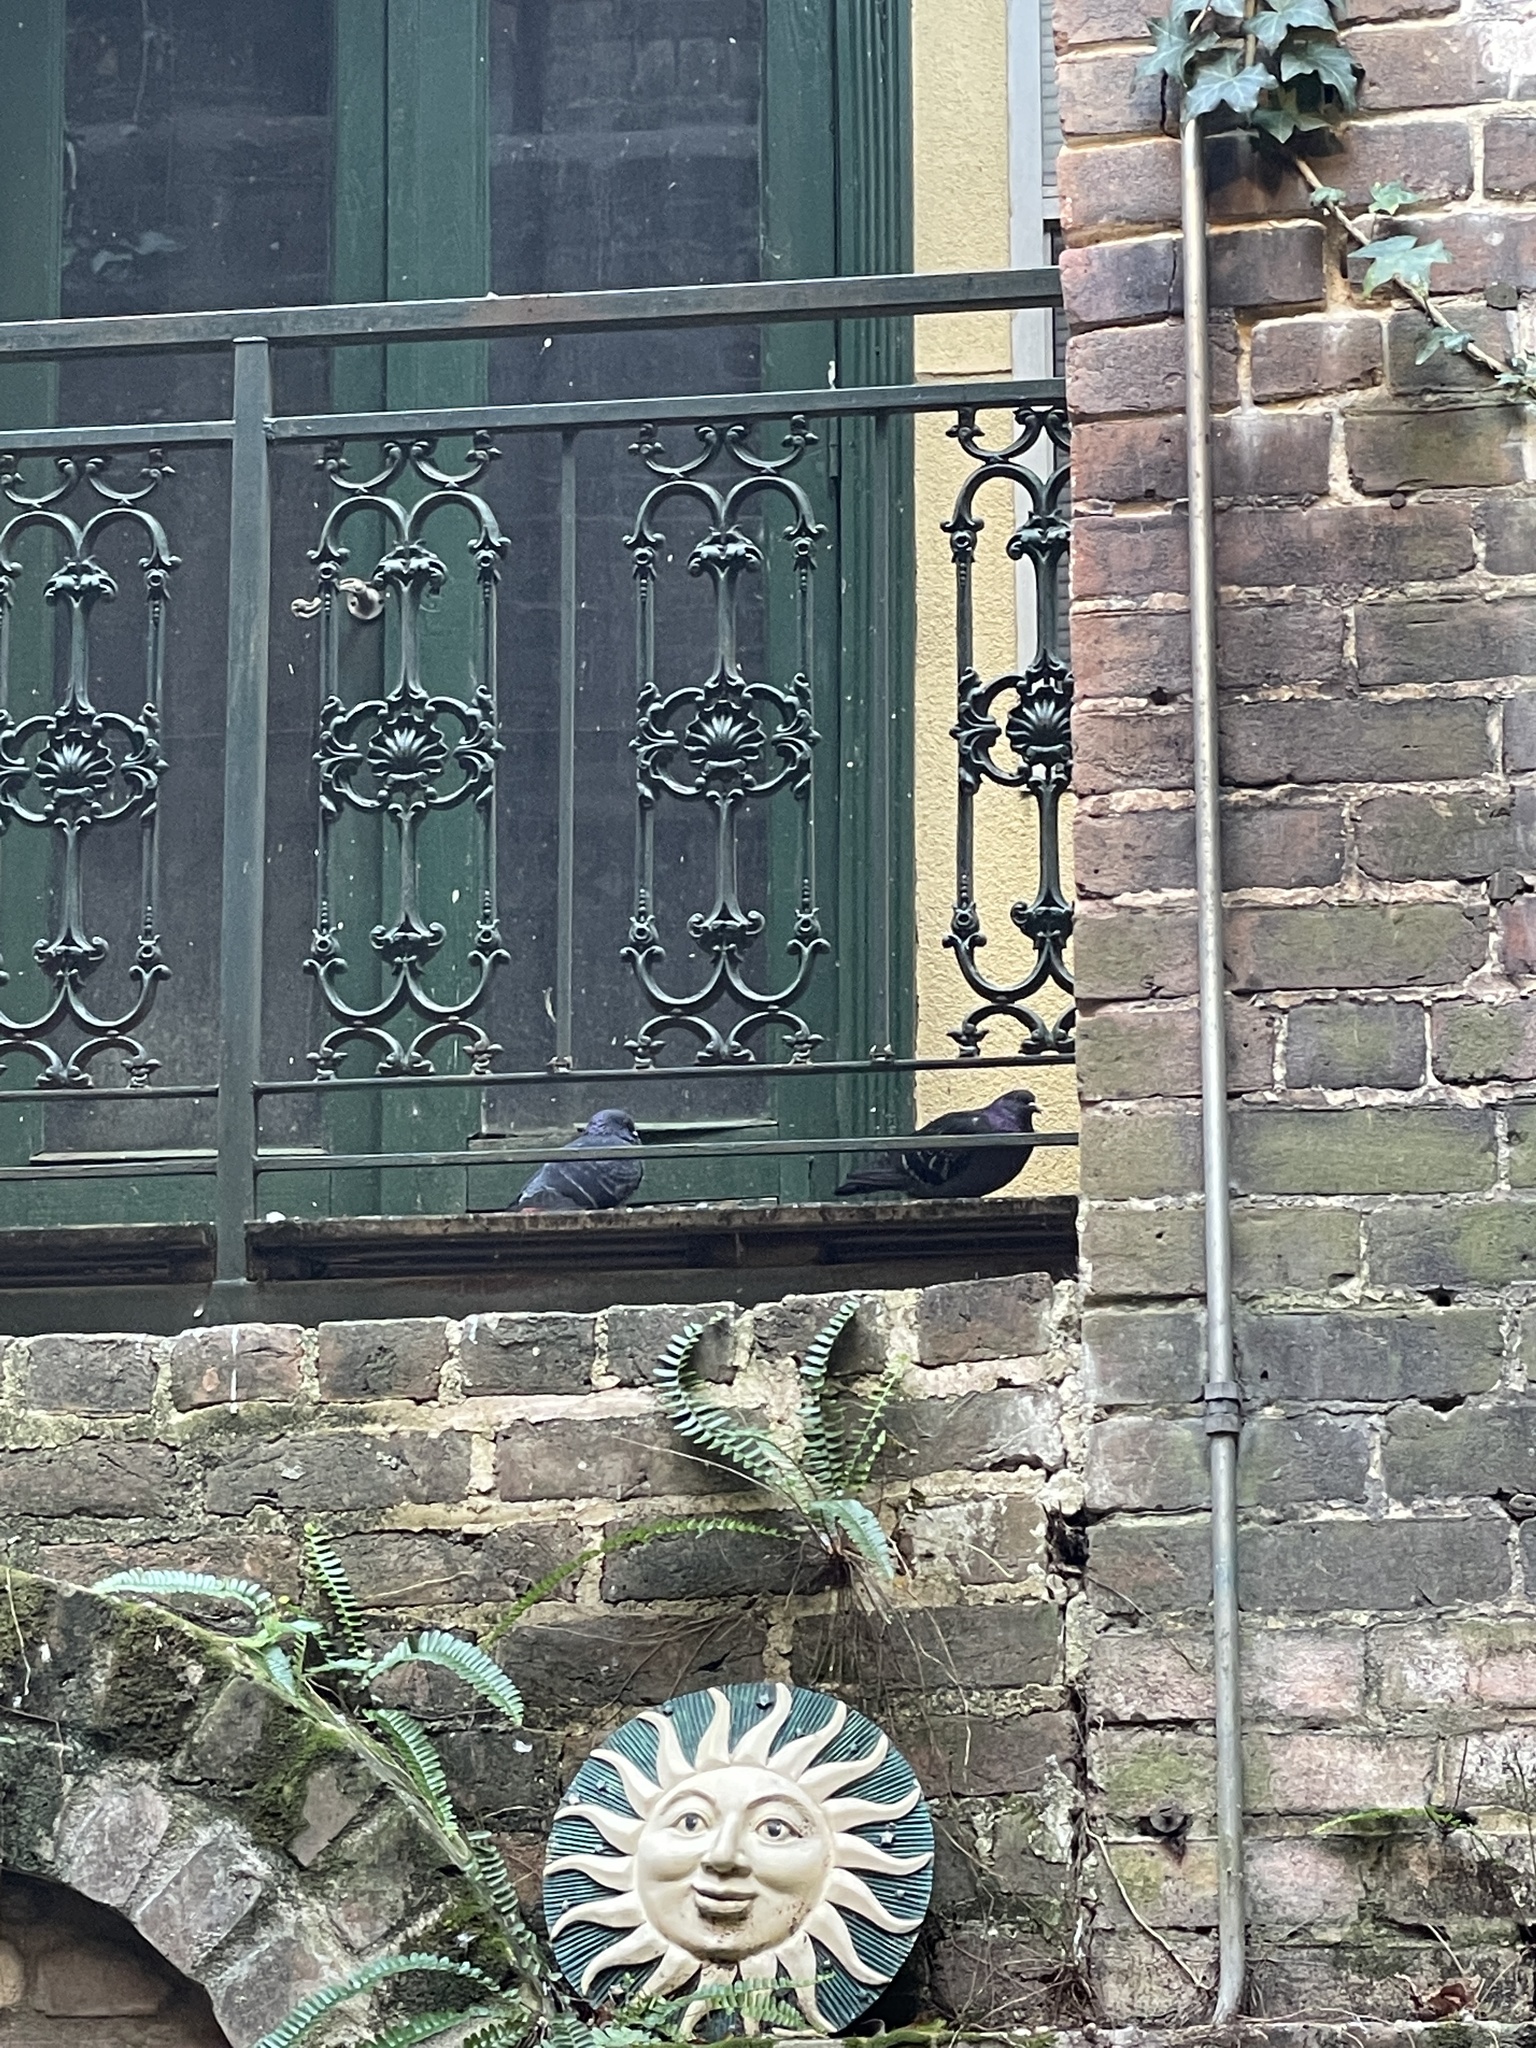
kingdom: Animalia
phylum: Chordata
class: Aves
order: Columbiformes
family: Columbidae
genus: Columba
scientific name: Columba livia
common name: Rock pigeon
